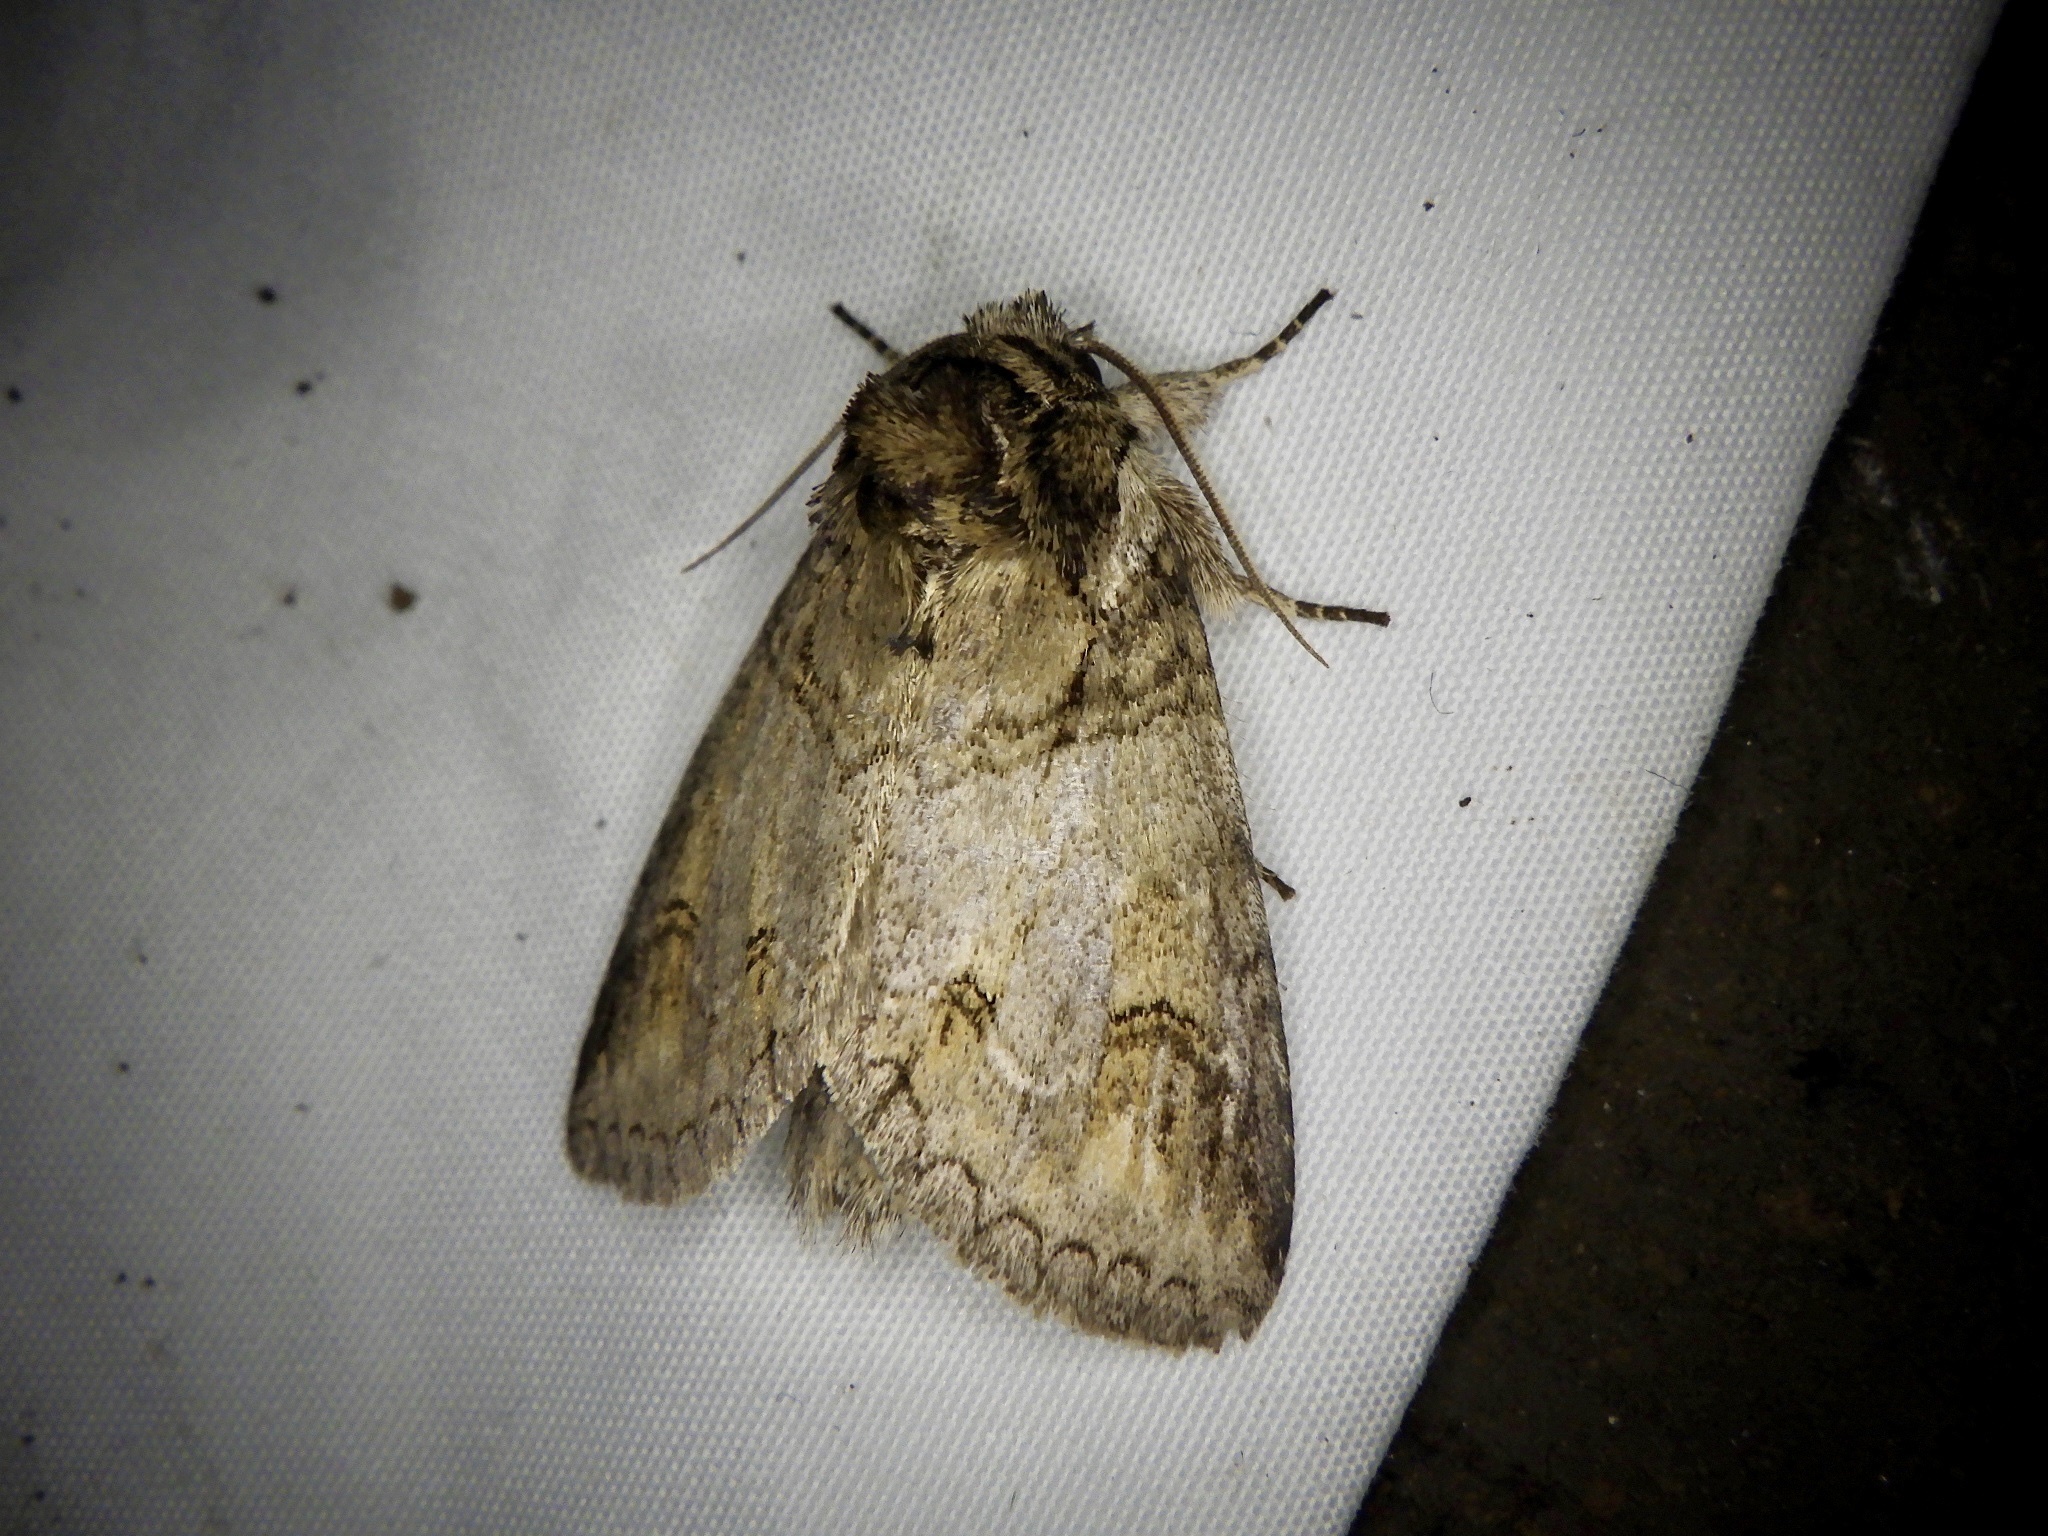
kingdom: Animalia
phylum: Arthropoda
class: Insecta
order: Lepidoptera
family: Notodontidae
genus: Neodrymonia
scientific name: Neodrymonia delia
